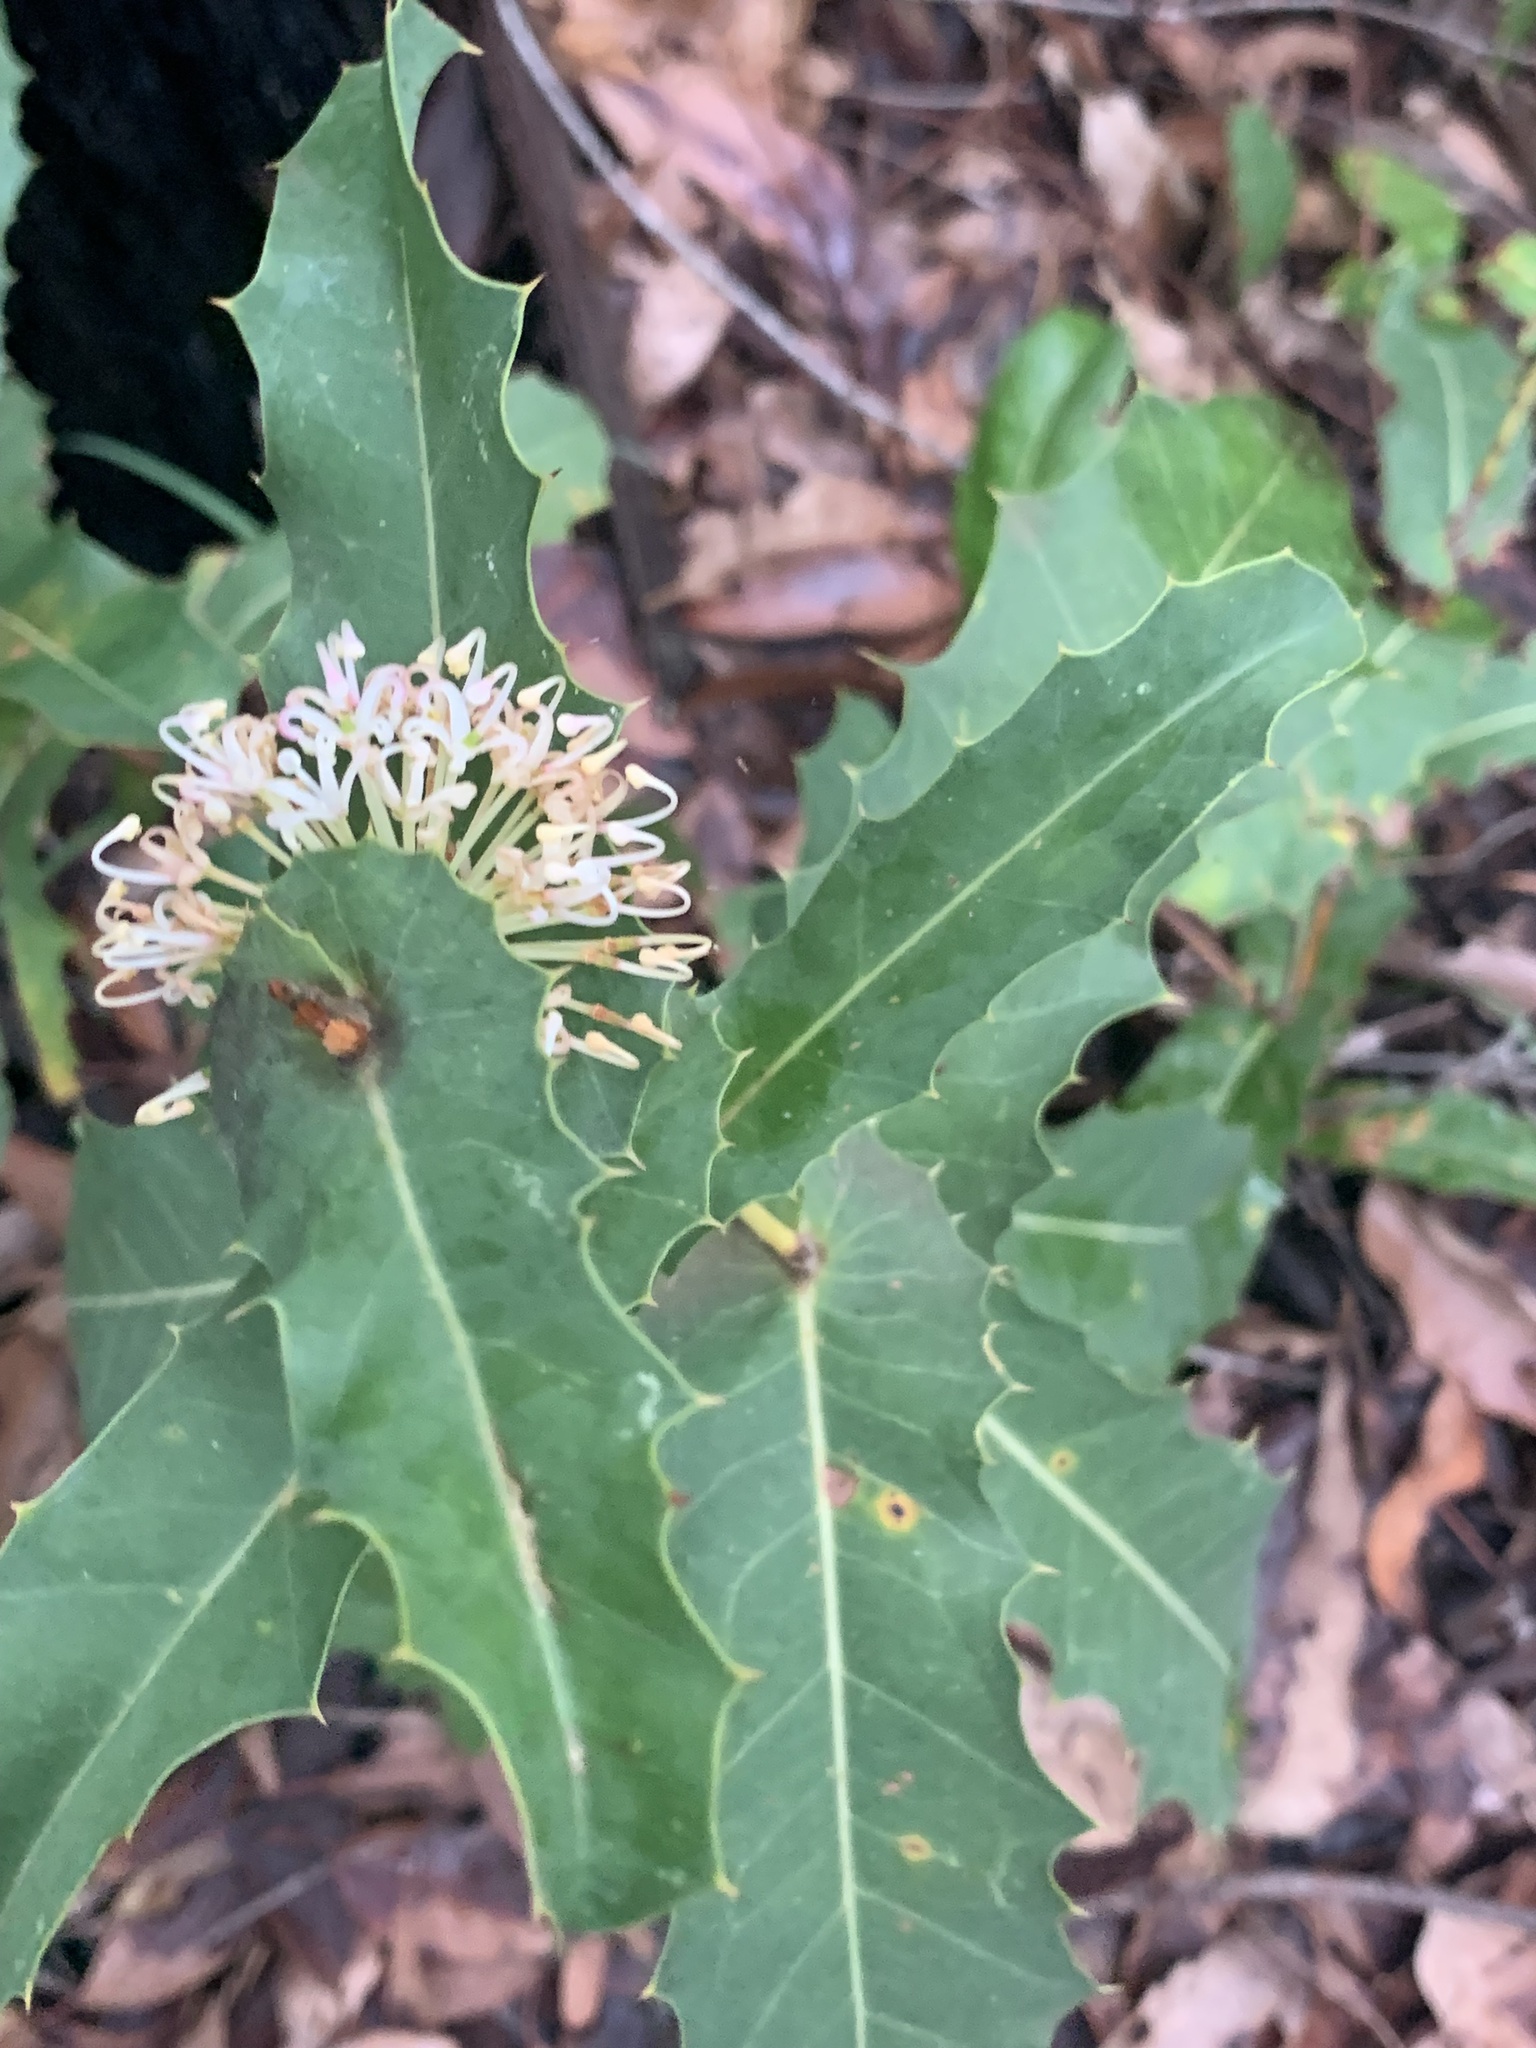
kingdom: Plantae
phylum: Tracheophyta
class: Magnoliopsida
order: Proteales
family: Proteaceae
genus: Hakea
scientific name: Hakea amplexicaulis
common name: Prickly hakea
